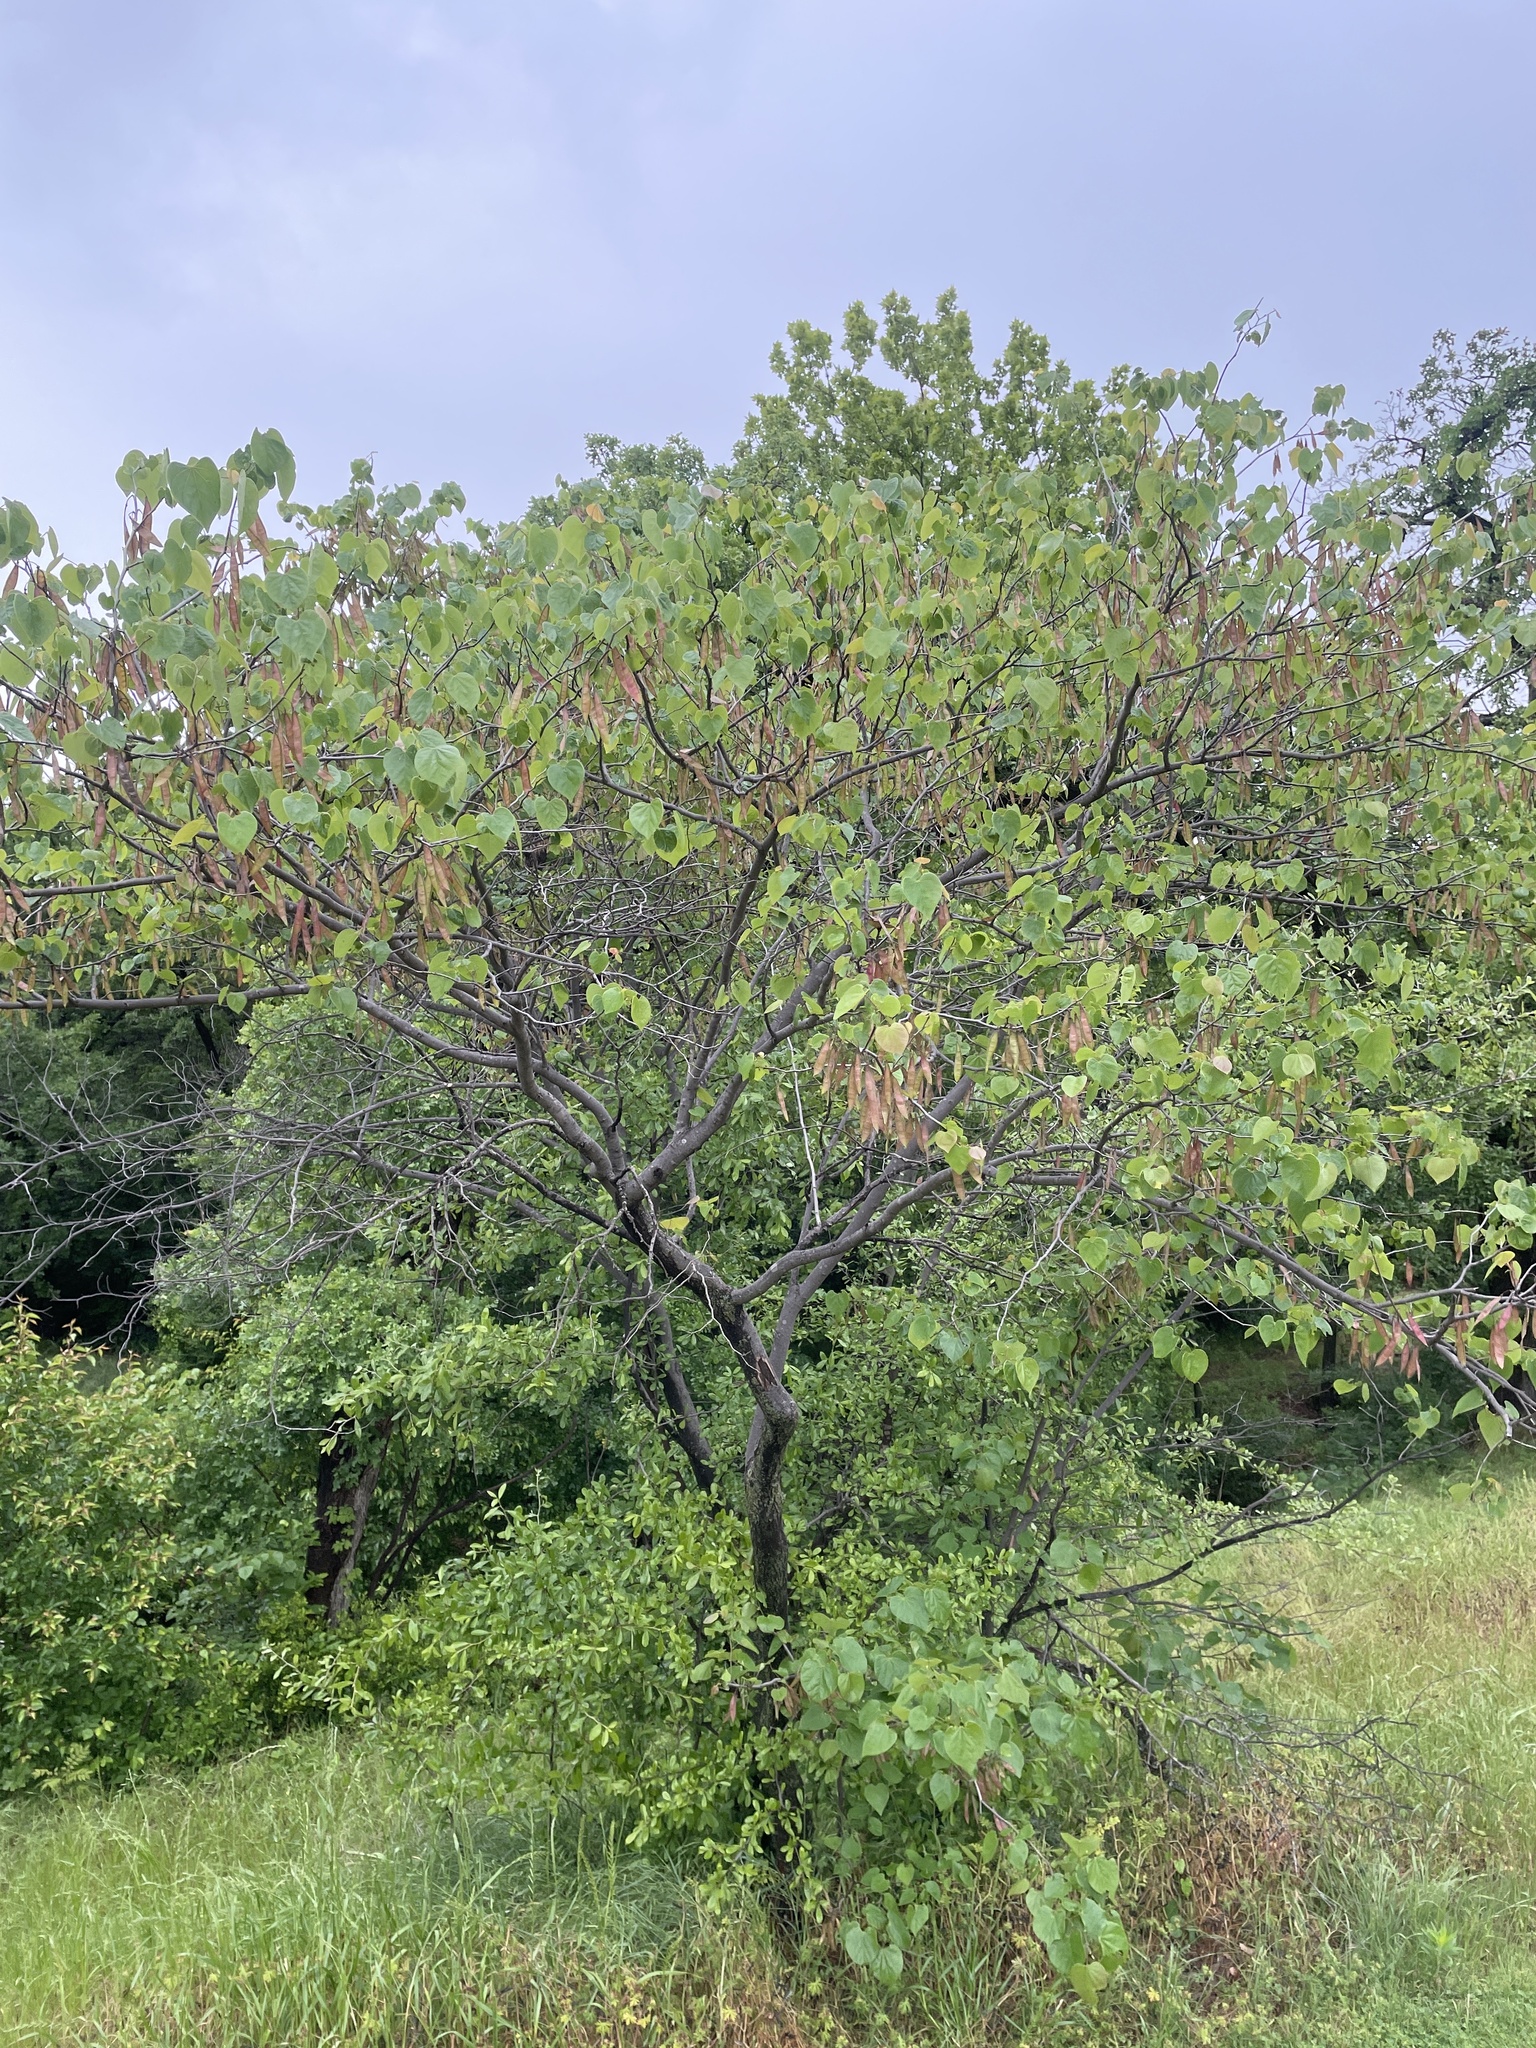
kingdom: Plantae
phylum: Tracheophyta
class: Magnoliopsida
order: Fabales
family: Fabaceae
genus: Cercis
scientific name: Cercis canadensis
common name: Eastern redbud
